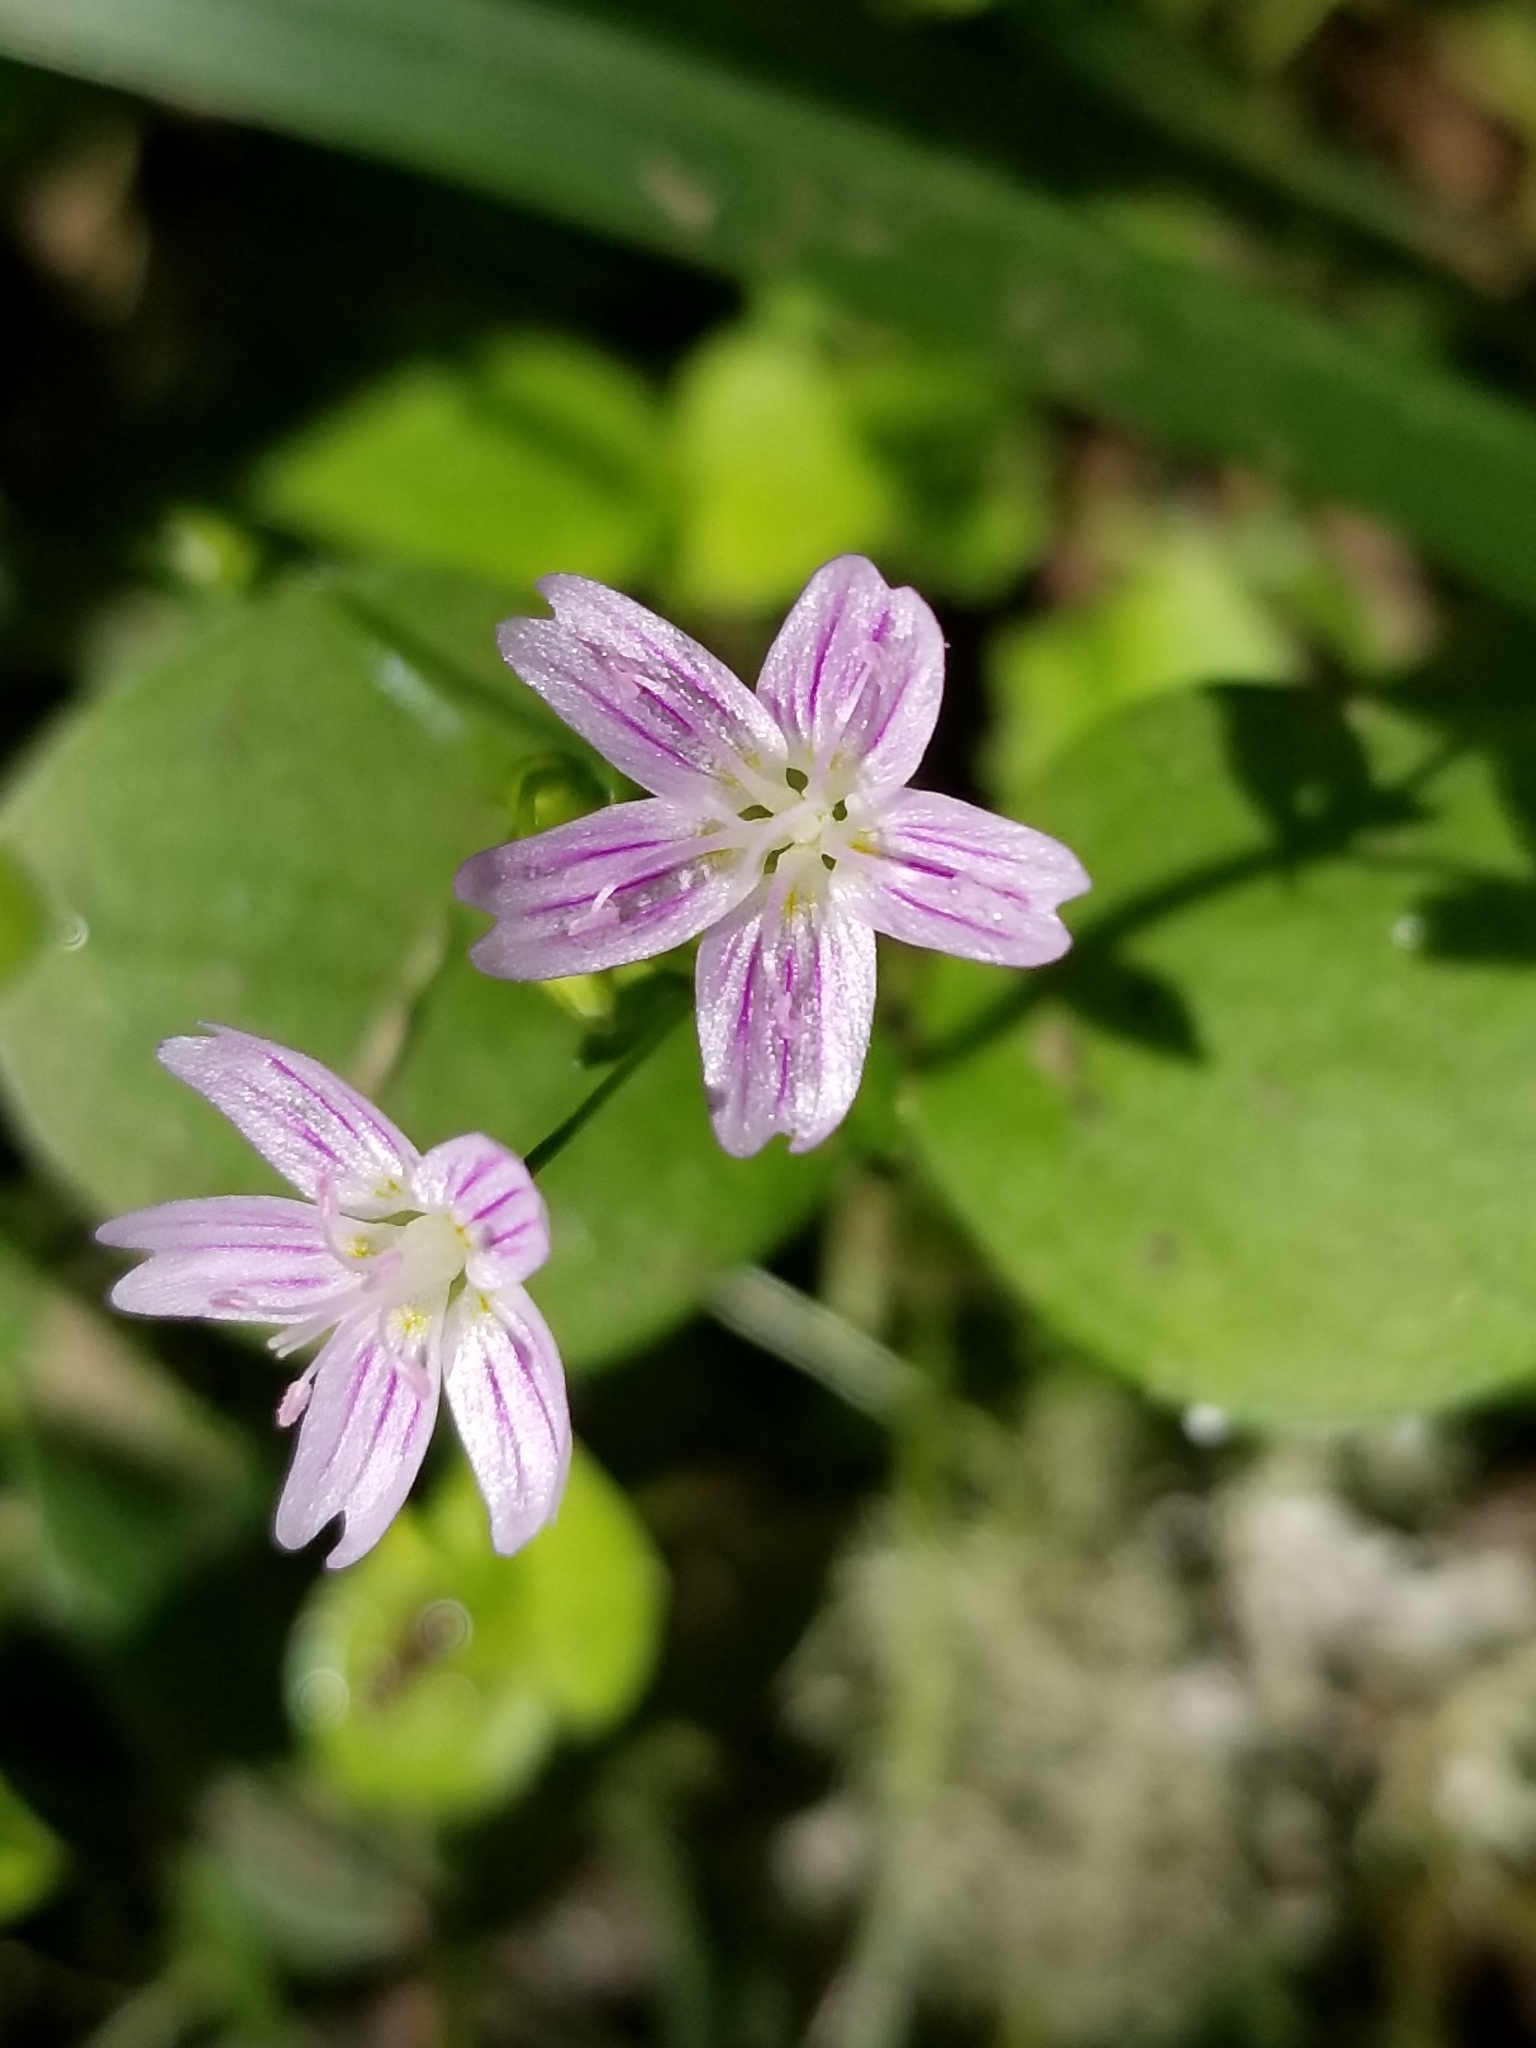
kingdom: Plantae
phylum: Tracheophyta
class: Magnoliopsida
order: Caryophyllales
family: Montiaceae
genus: Claytonia
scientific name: Claytonia sibirica
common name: Pink purslane
